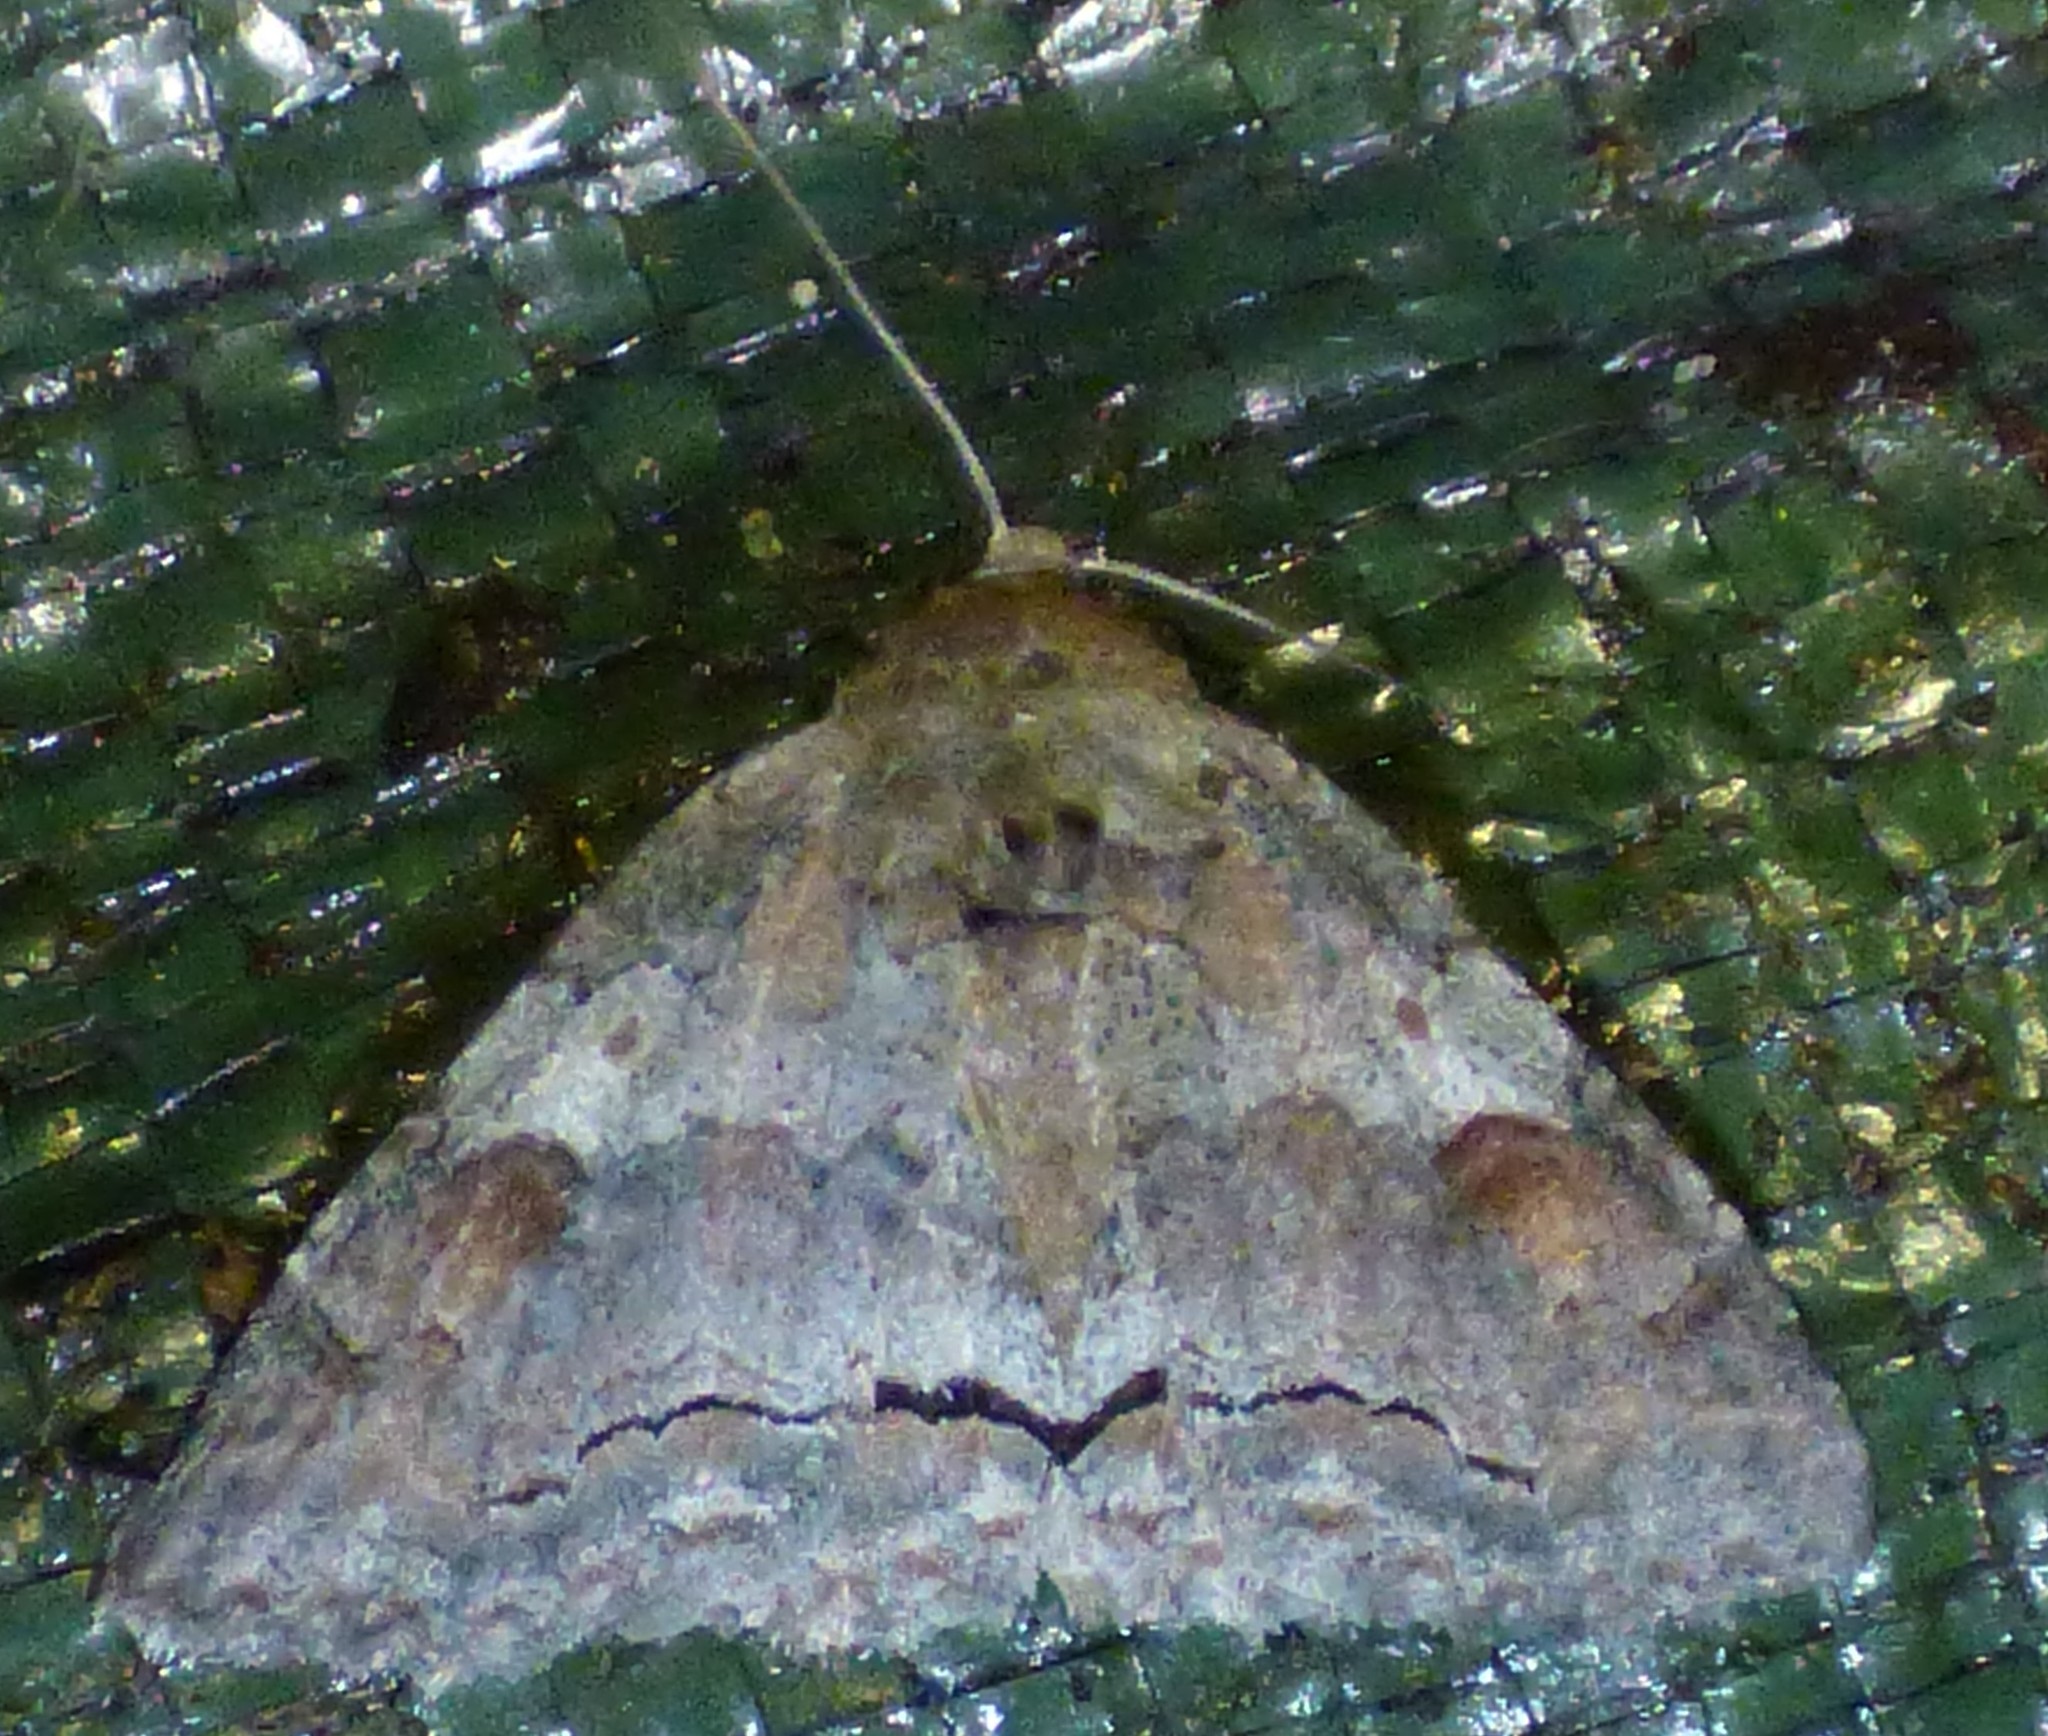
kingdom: Animalia
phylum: Arthropoda
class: Insecta
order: Lepidoptera
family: Erebidae
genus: Zale
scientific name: Zale obliqua
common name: Oblique zale moth
